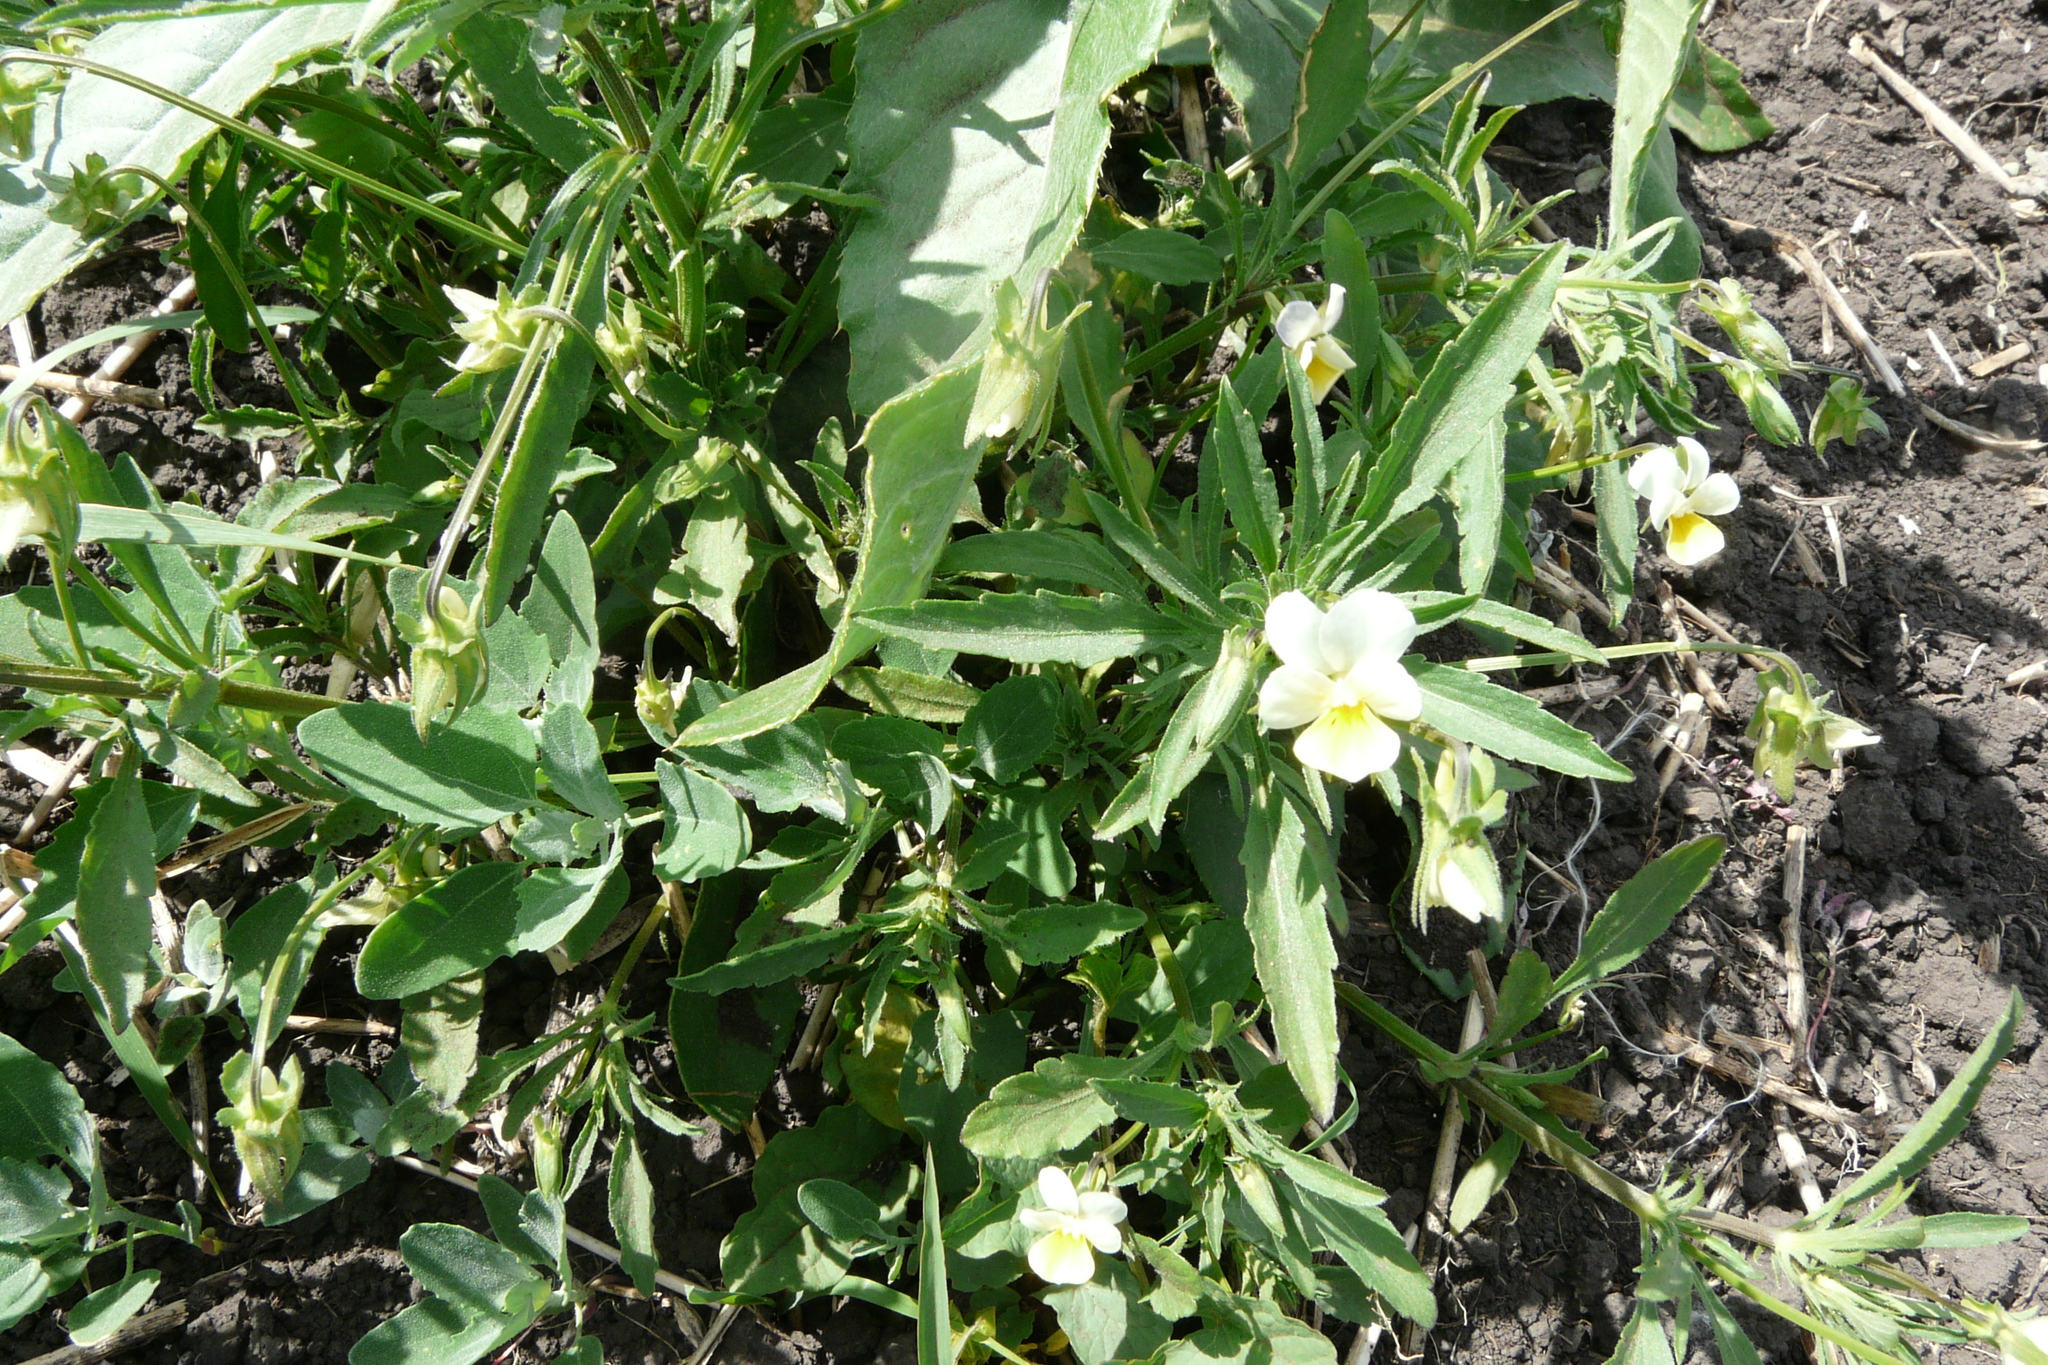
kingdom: Plantae
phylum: Tracheophyta
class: Magnoliopsida
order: Malpighiales
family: Violaceae
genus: Viola
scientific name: Viola arvensis
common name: Field pansy
